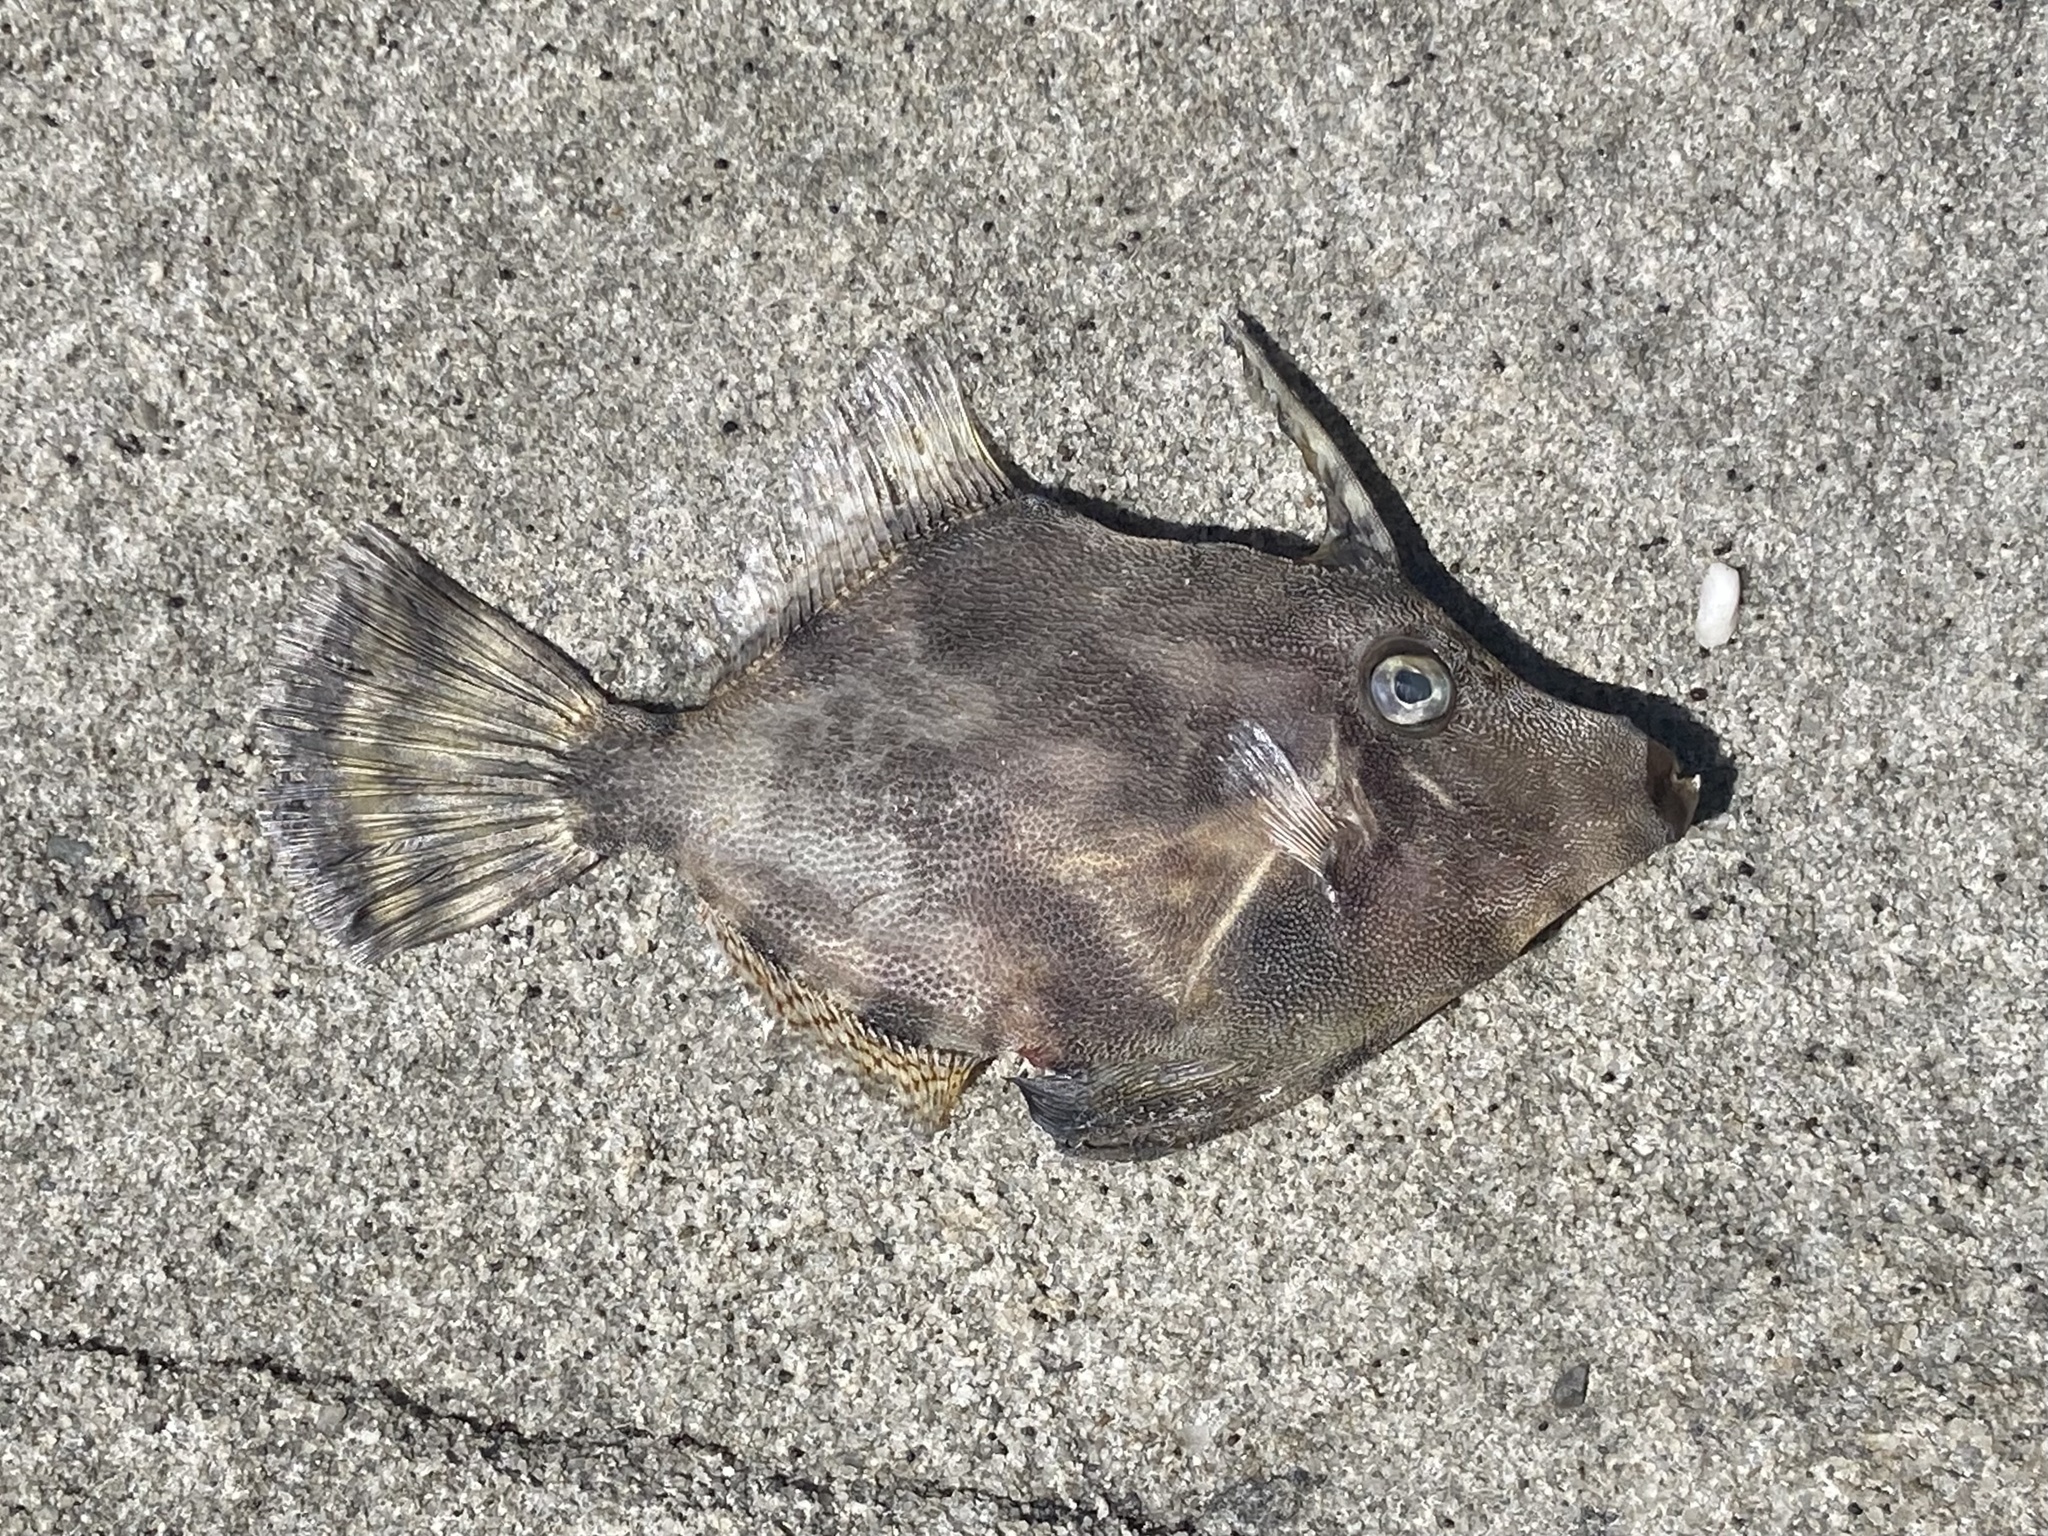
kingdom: Animalia
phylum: Chordata
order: Tetraodontiformes
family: Monacanthidae
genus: Monacanthus
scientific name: Monacanthus chinensis
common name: Centreboard leatherjacket
